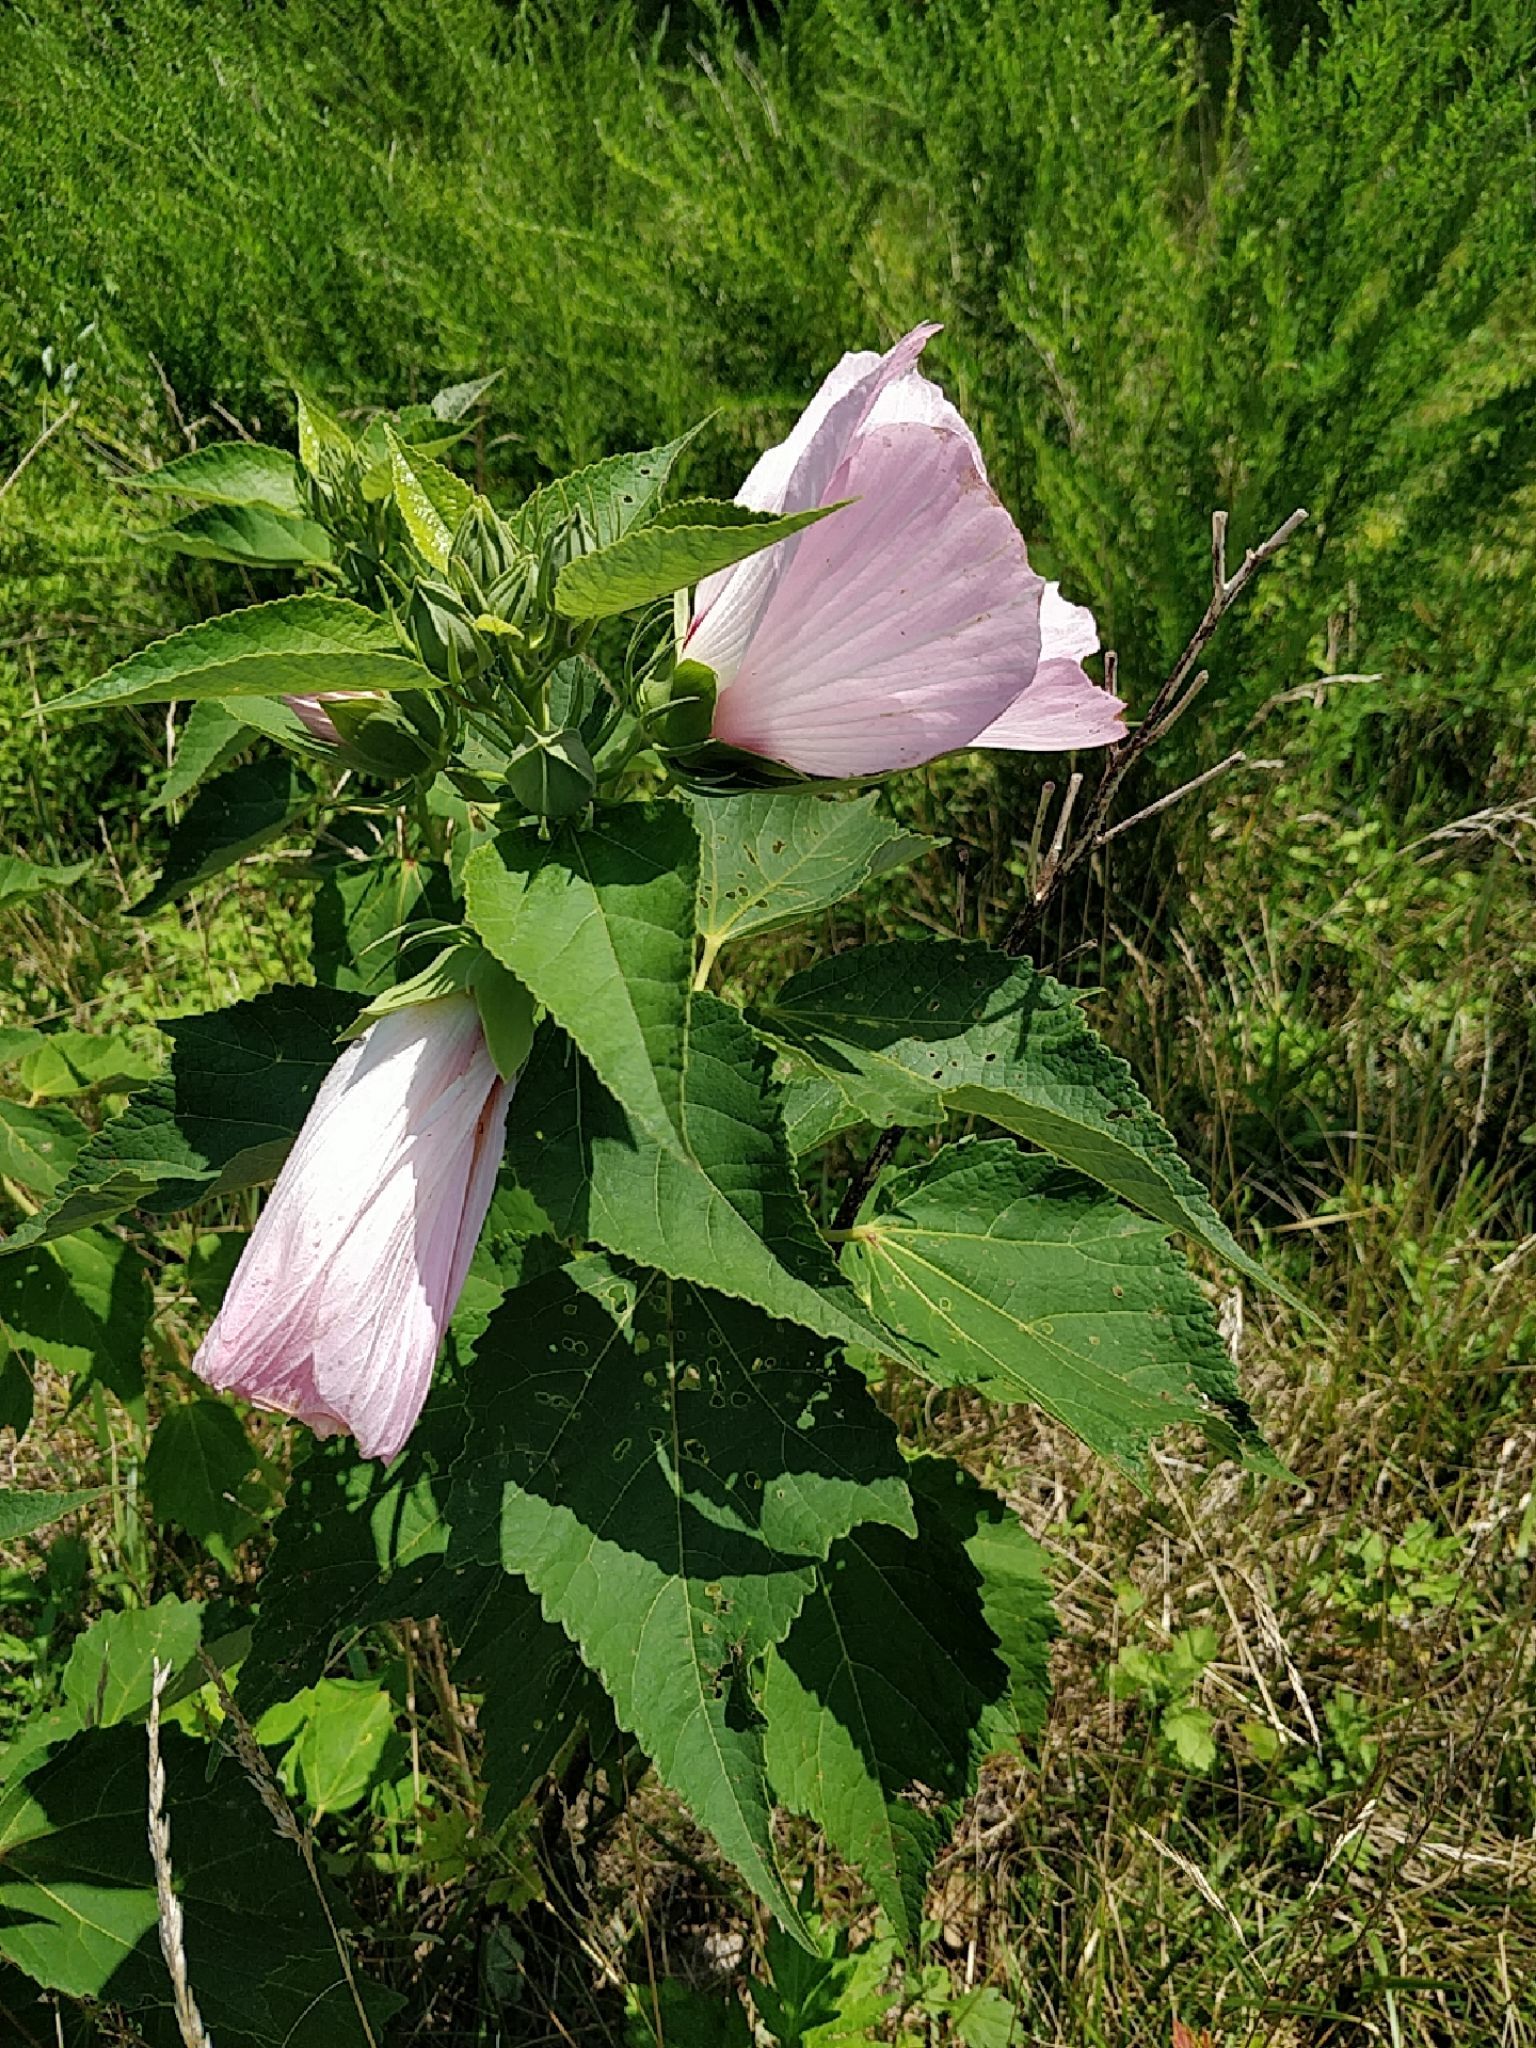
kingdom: Plantae
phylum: Tracheophyta
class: Magnoliopsida
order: Malvales
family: Malvaceae
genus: Hibiscus
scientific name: Hibiscus moscheutos
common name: Common rose-mallow
